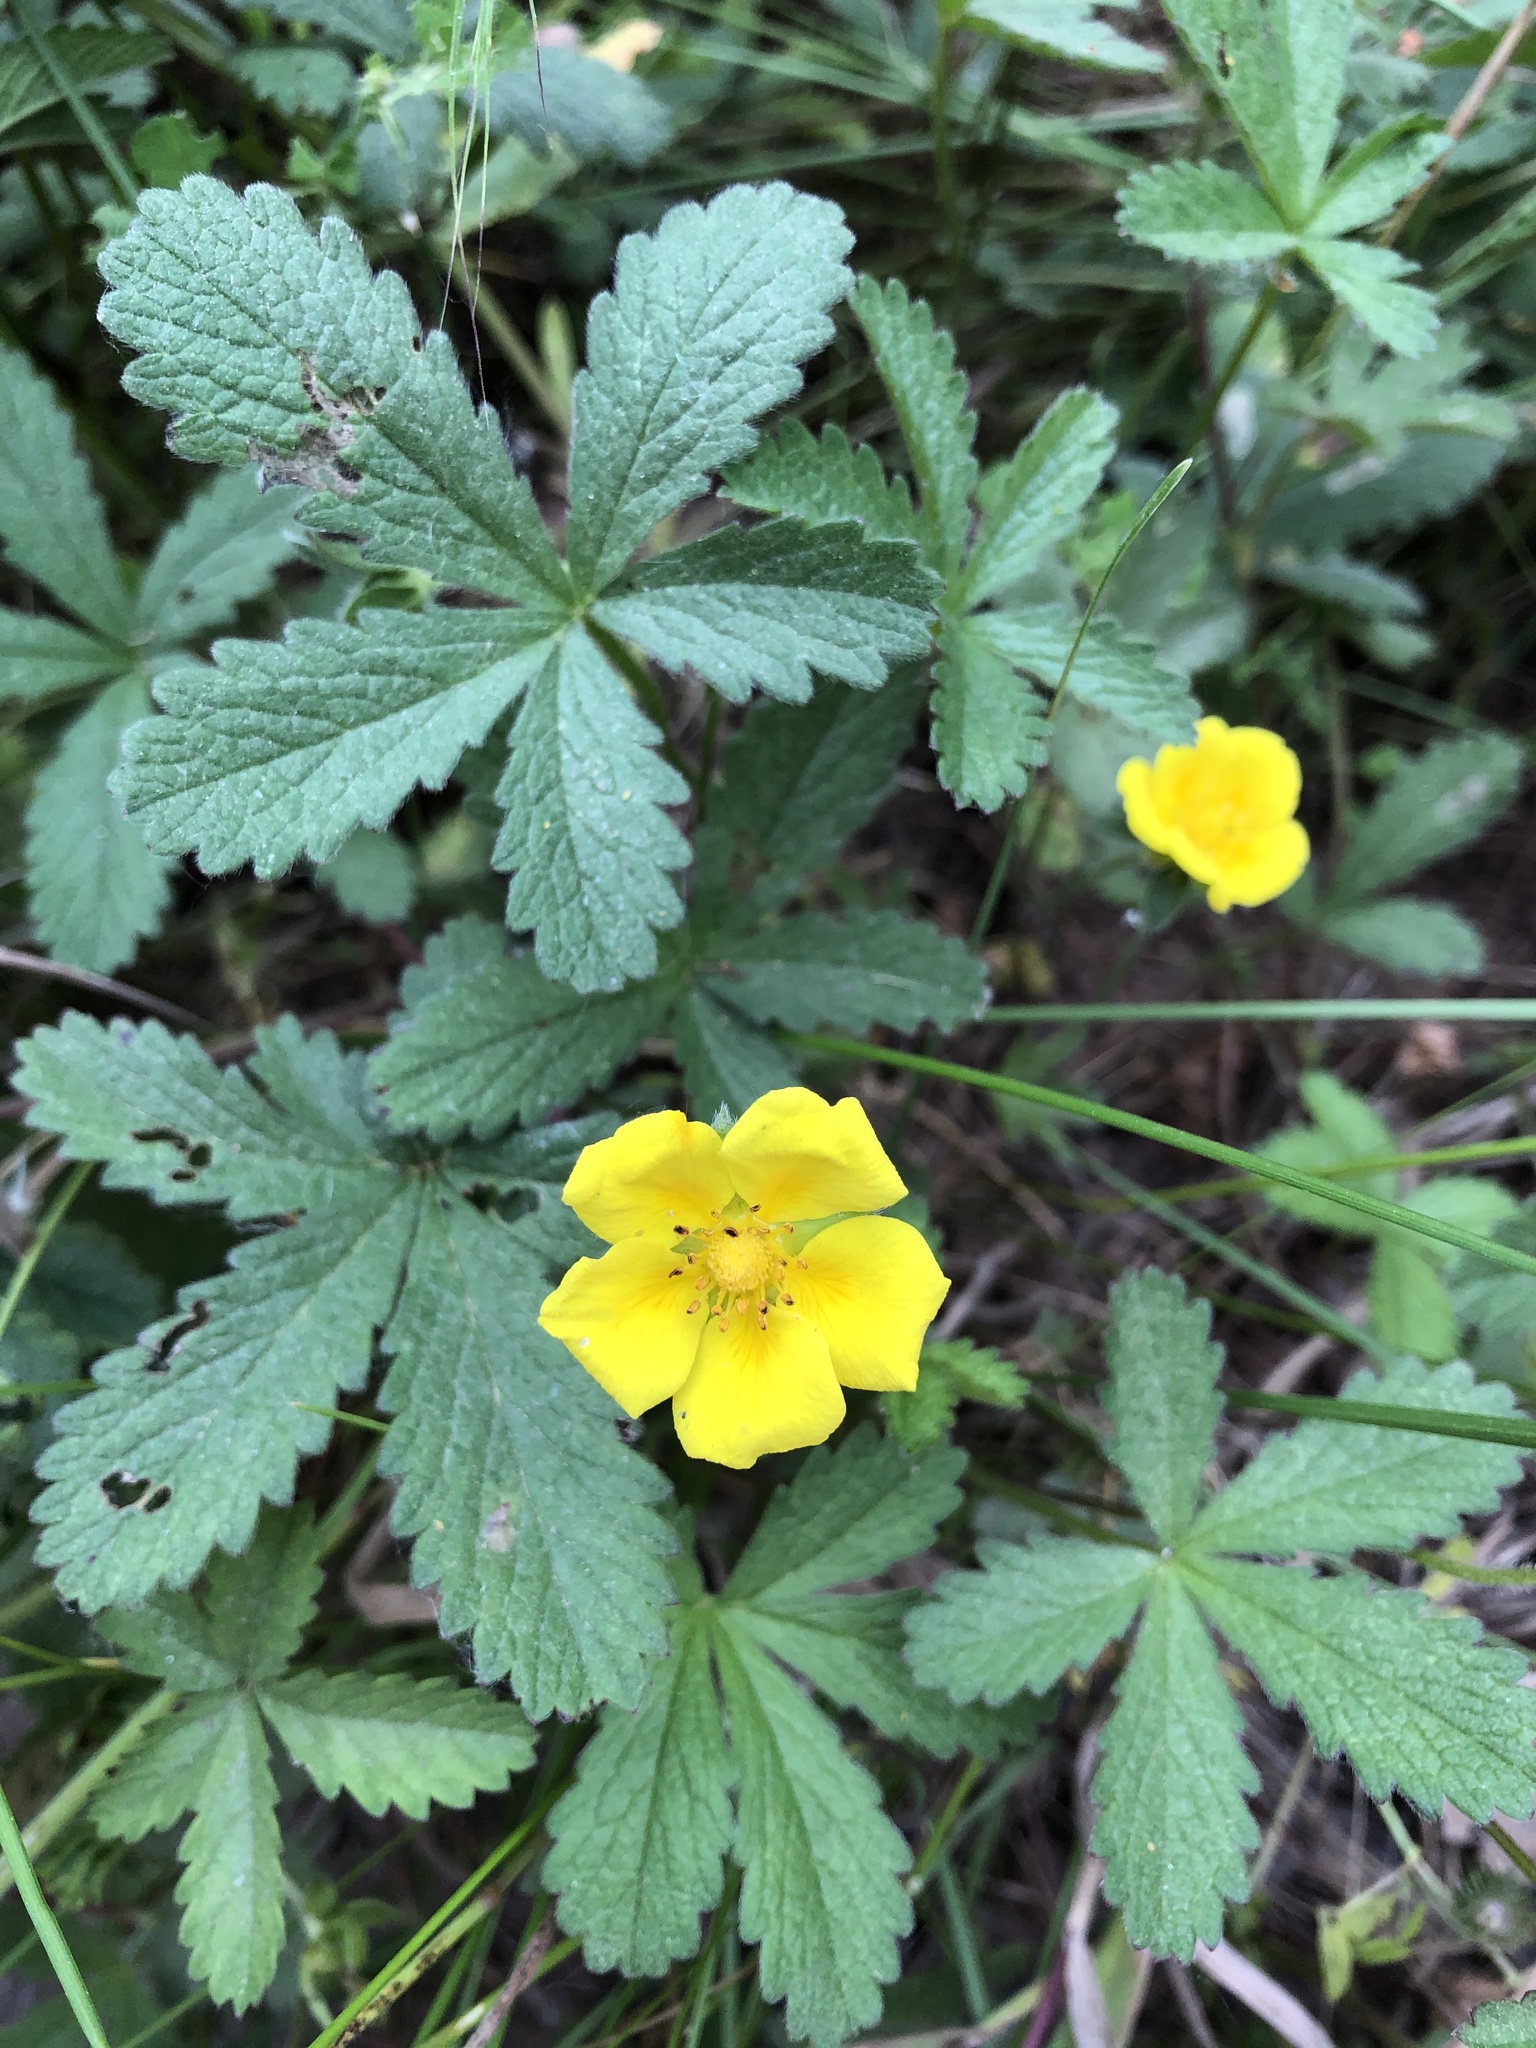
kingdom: Plantae
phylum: Tracheophyta
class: Magnoliopsida
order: Rosales
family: Rosaceae
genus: Potentilla
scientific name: Potentilla reptans
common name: Creeping cinquefoil
